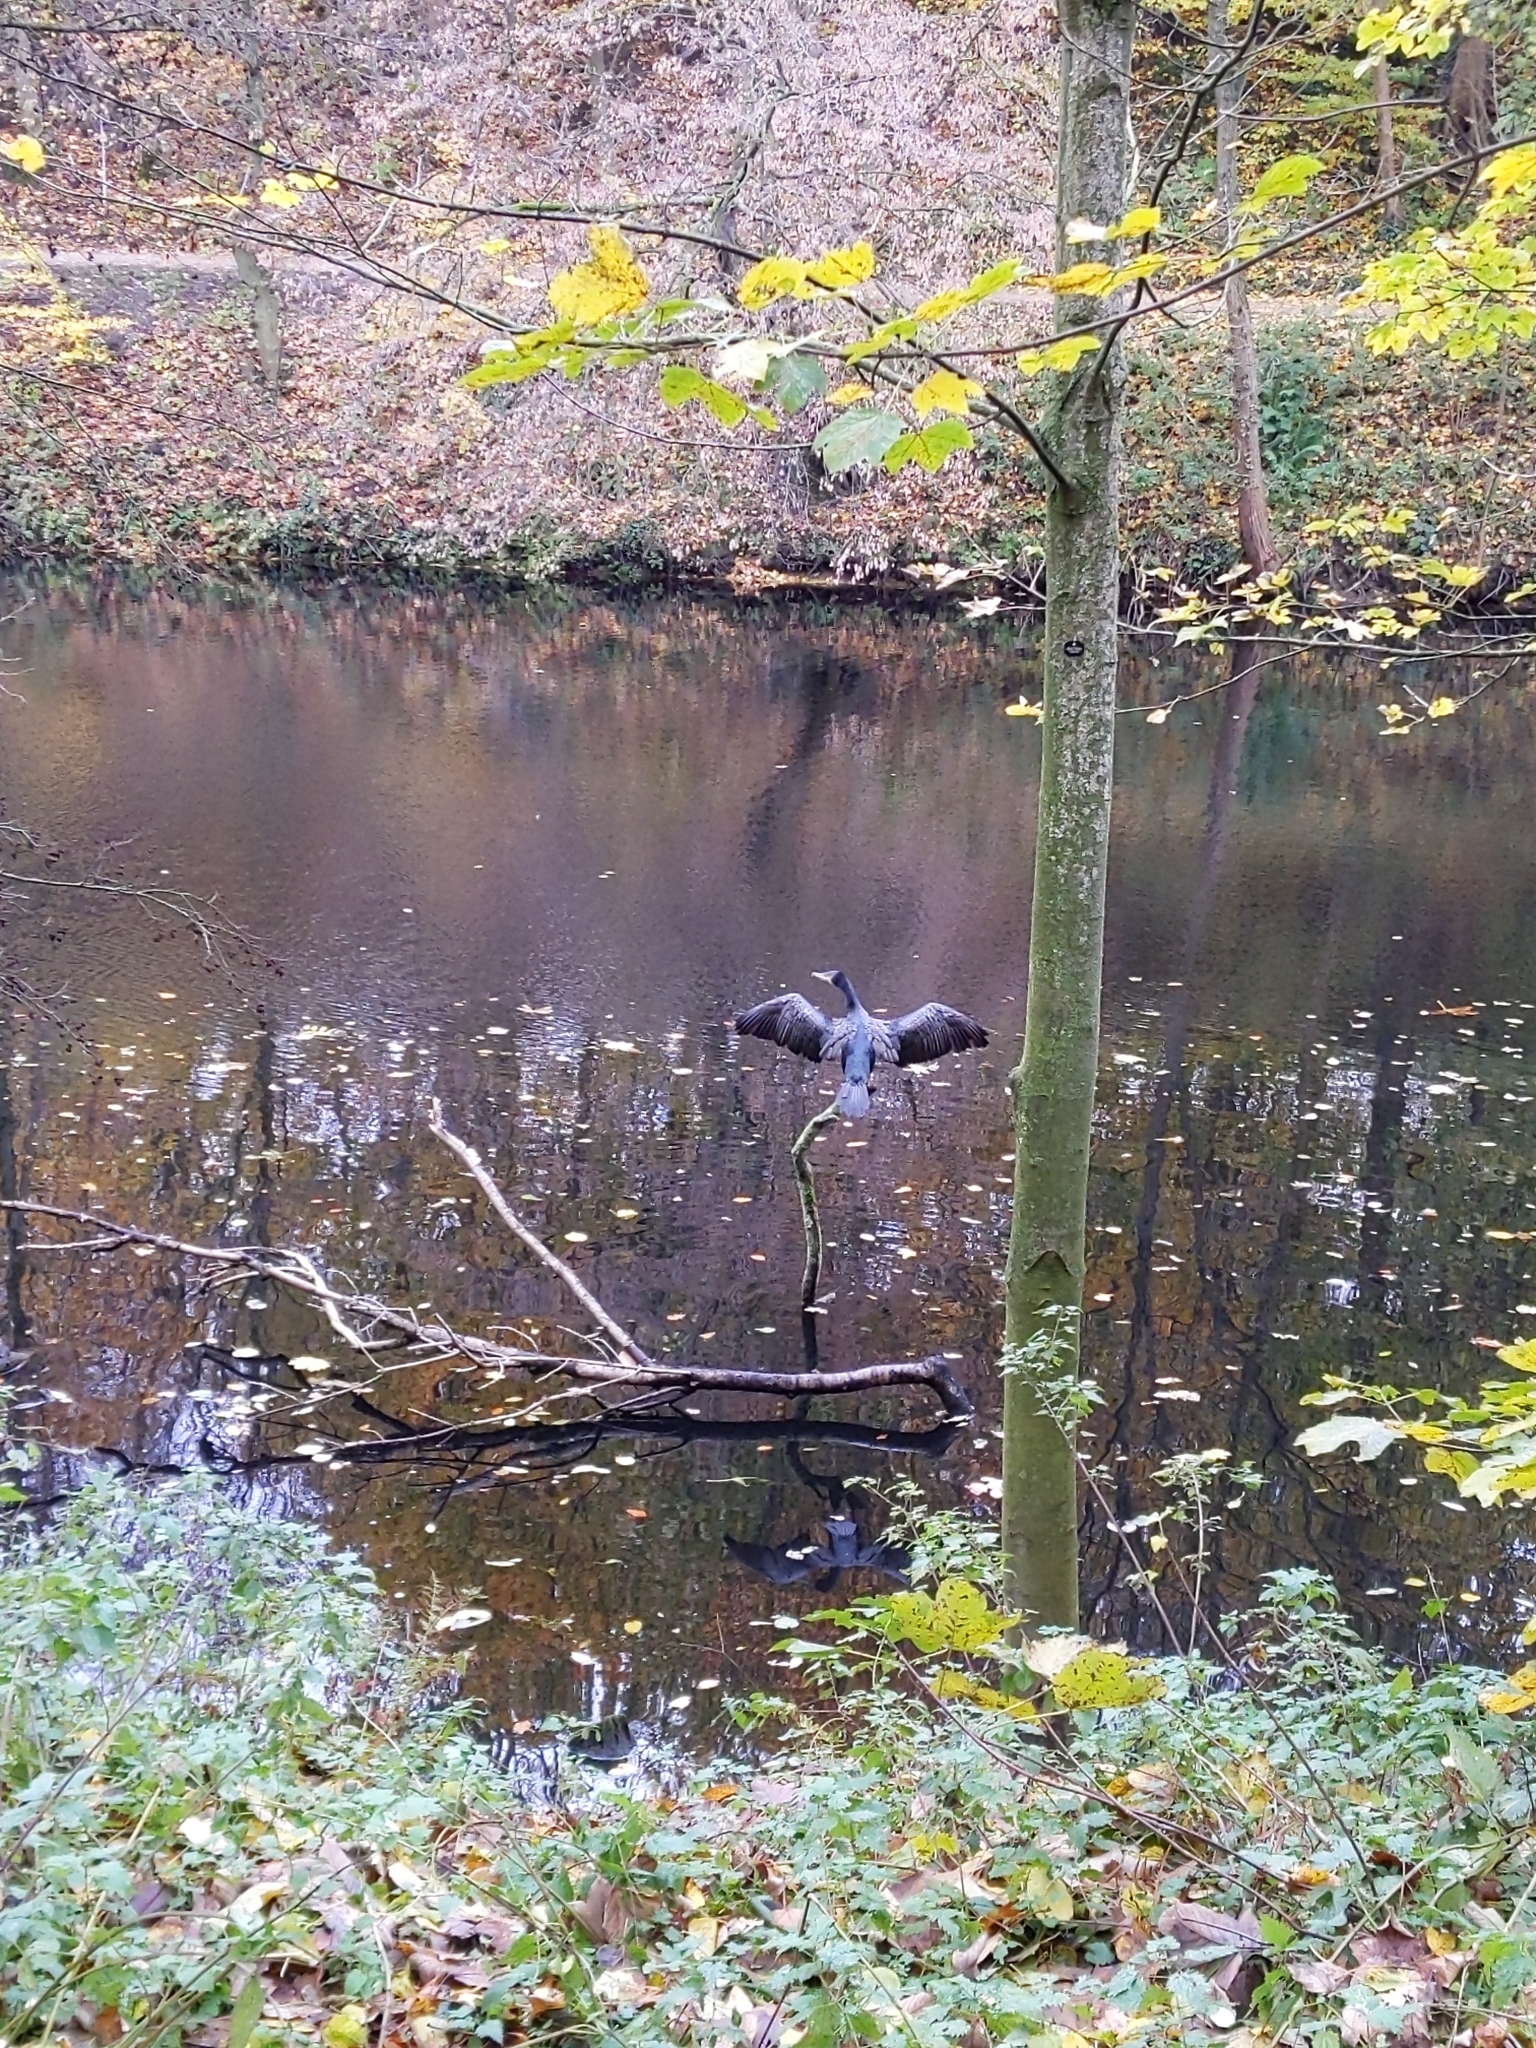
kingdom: Animalia
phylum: Chordata
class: Aves
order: Suliformes
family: Phalacrocoracidae
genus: Phalacrocorax
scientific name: Phalacrocorax carbo
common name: Great cormorant
